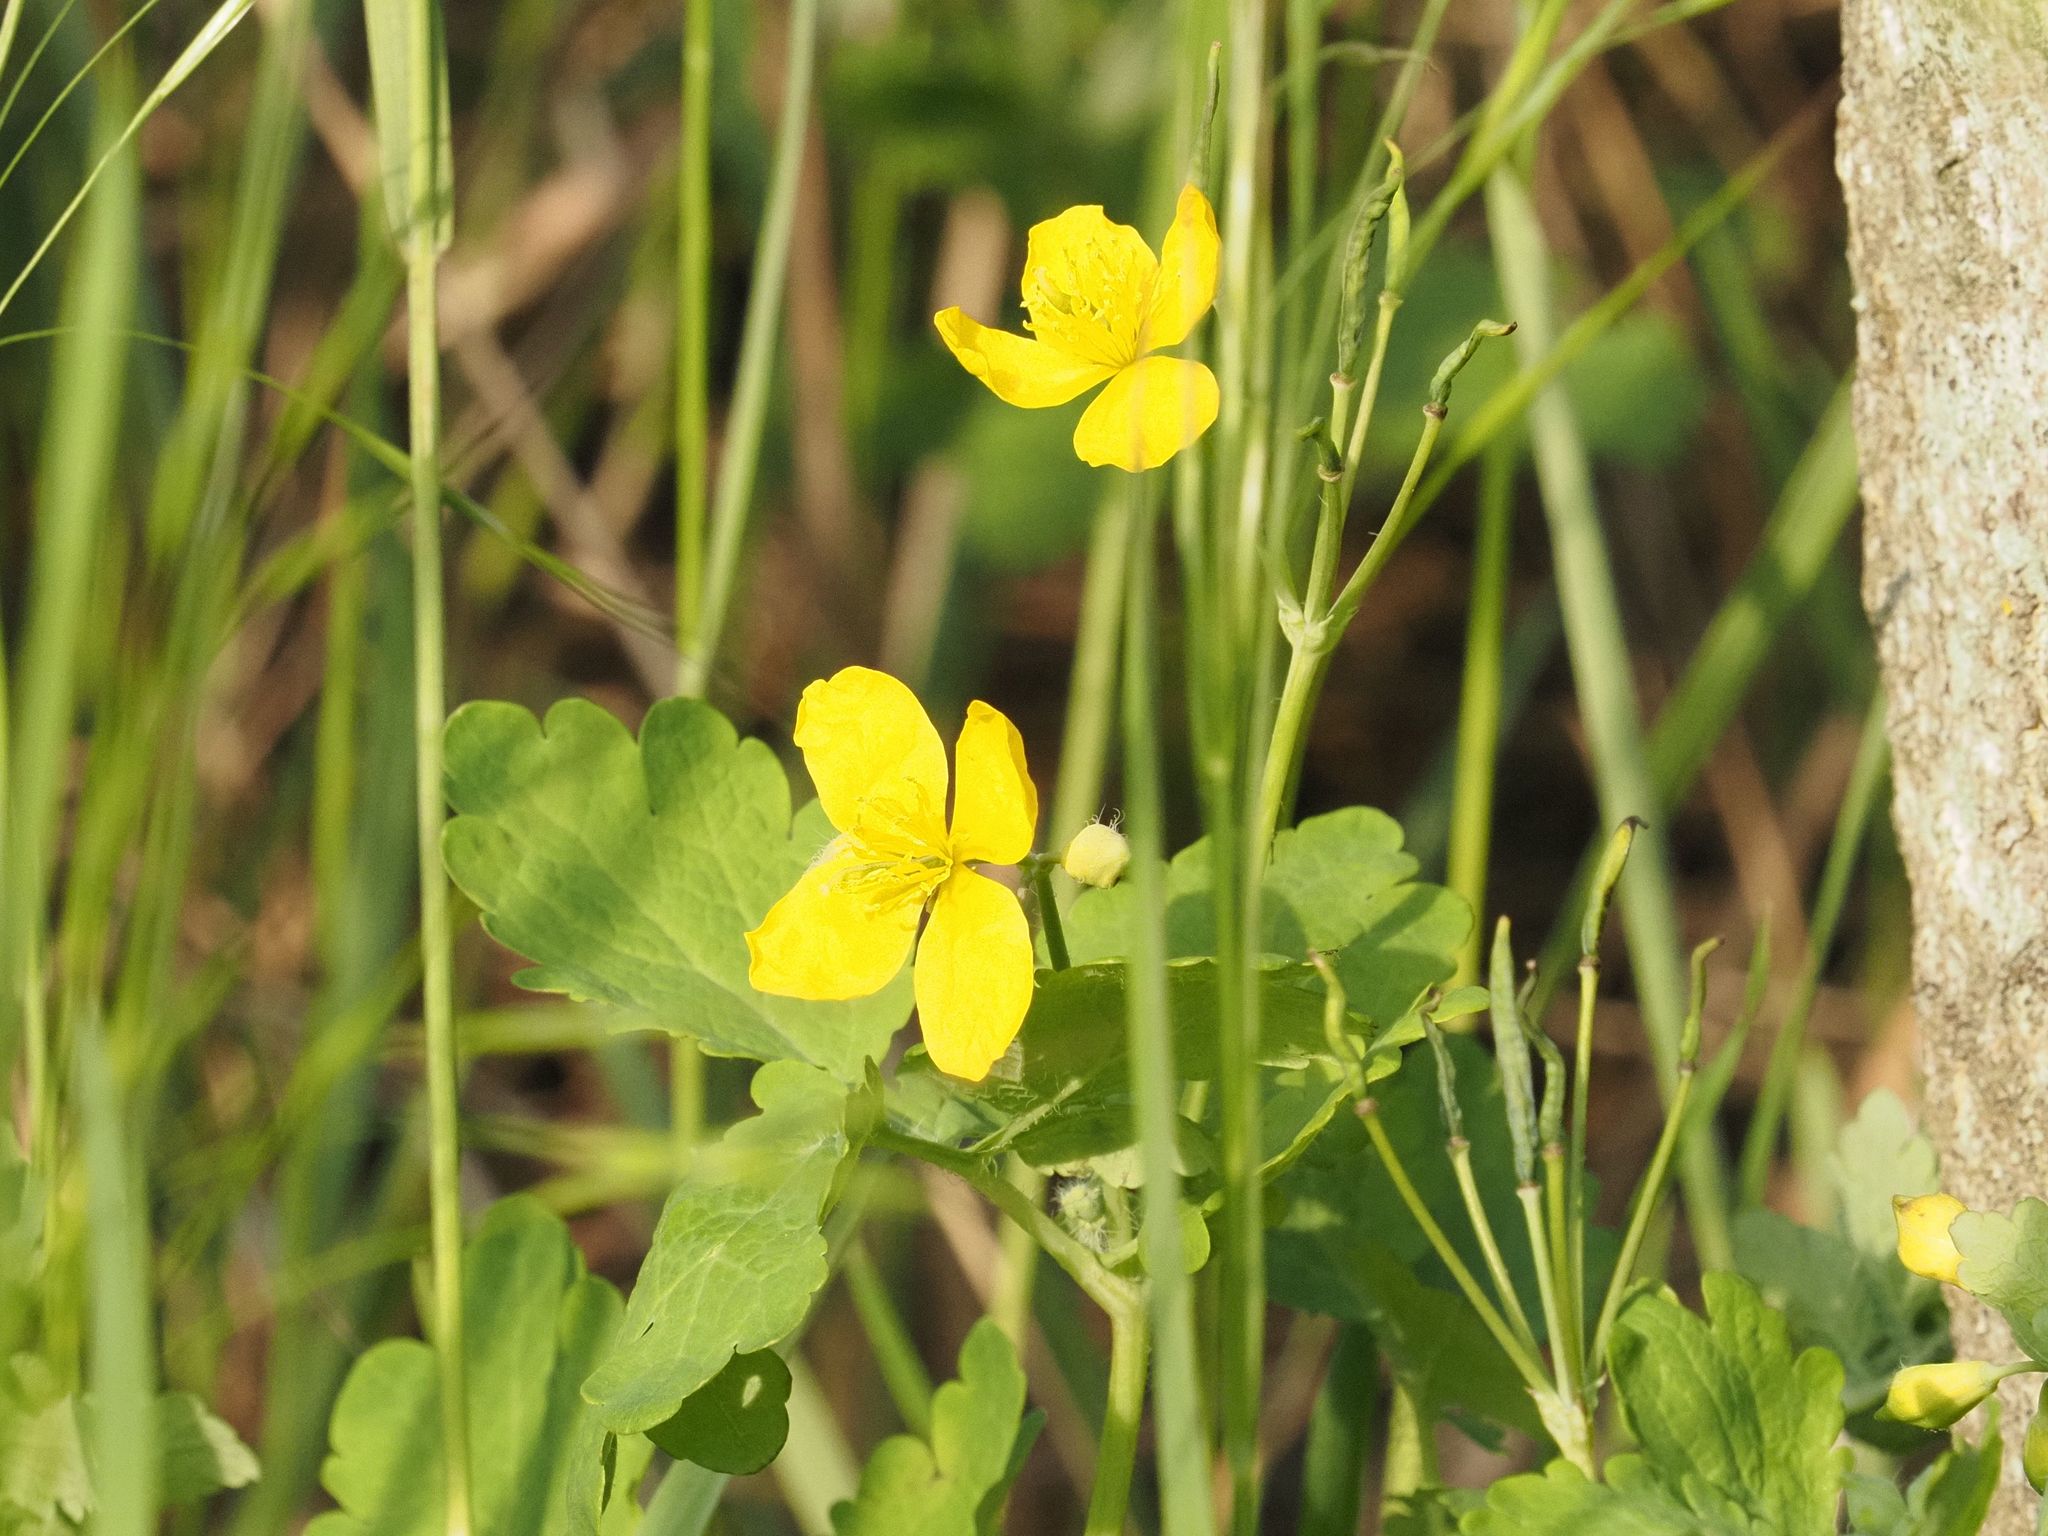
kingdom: Plantae
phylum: Tracheophyta
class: Magnoliopsida
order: Ranunculales
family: Papaveraceae
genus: Chelidonium
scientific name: Chelidonium majus
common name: Greater celandine
